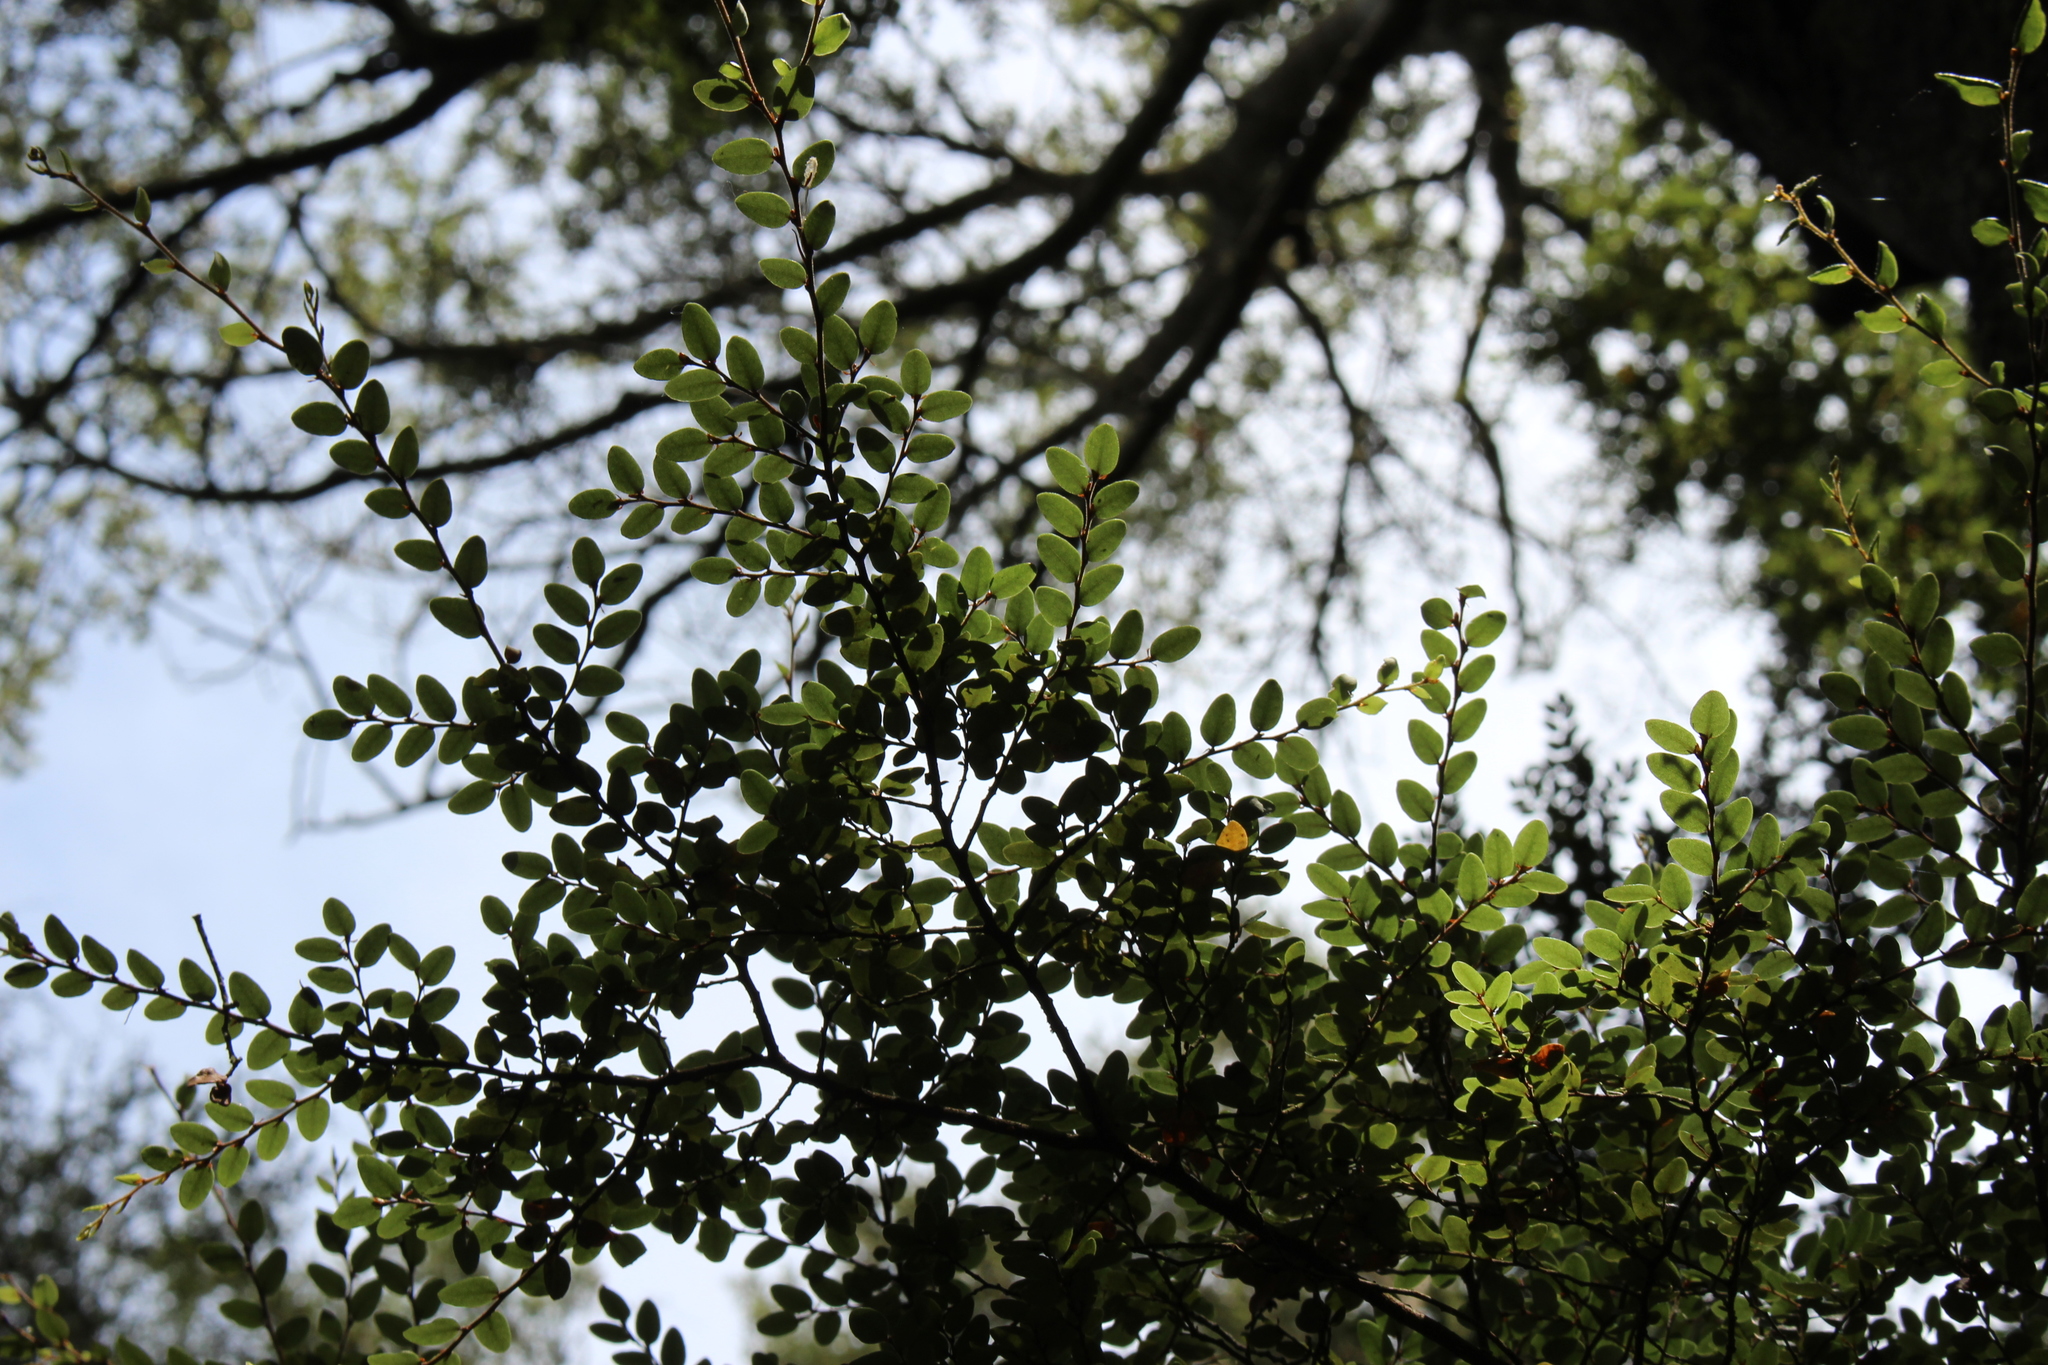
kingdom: Plantae
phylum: Tracheophyta
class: Magnoliopsida
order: Fagales
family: Nothofagaceae
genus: Nothofagus
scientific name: Nothofagus cliffortioides
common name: Mountain beech
